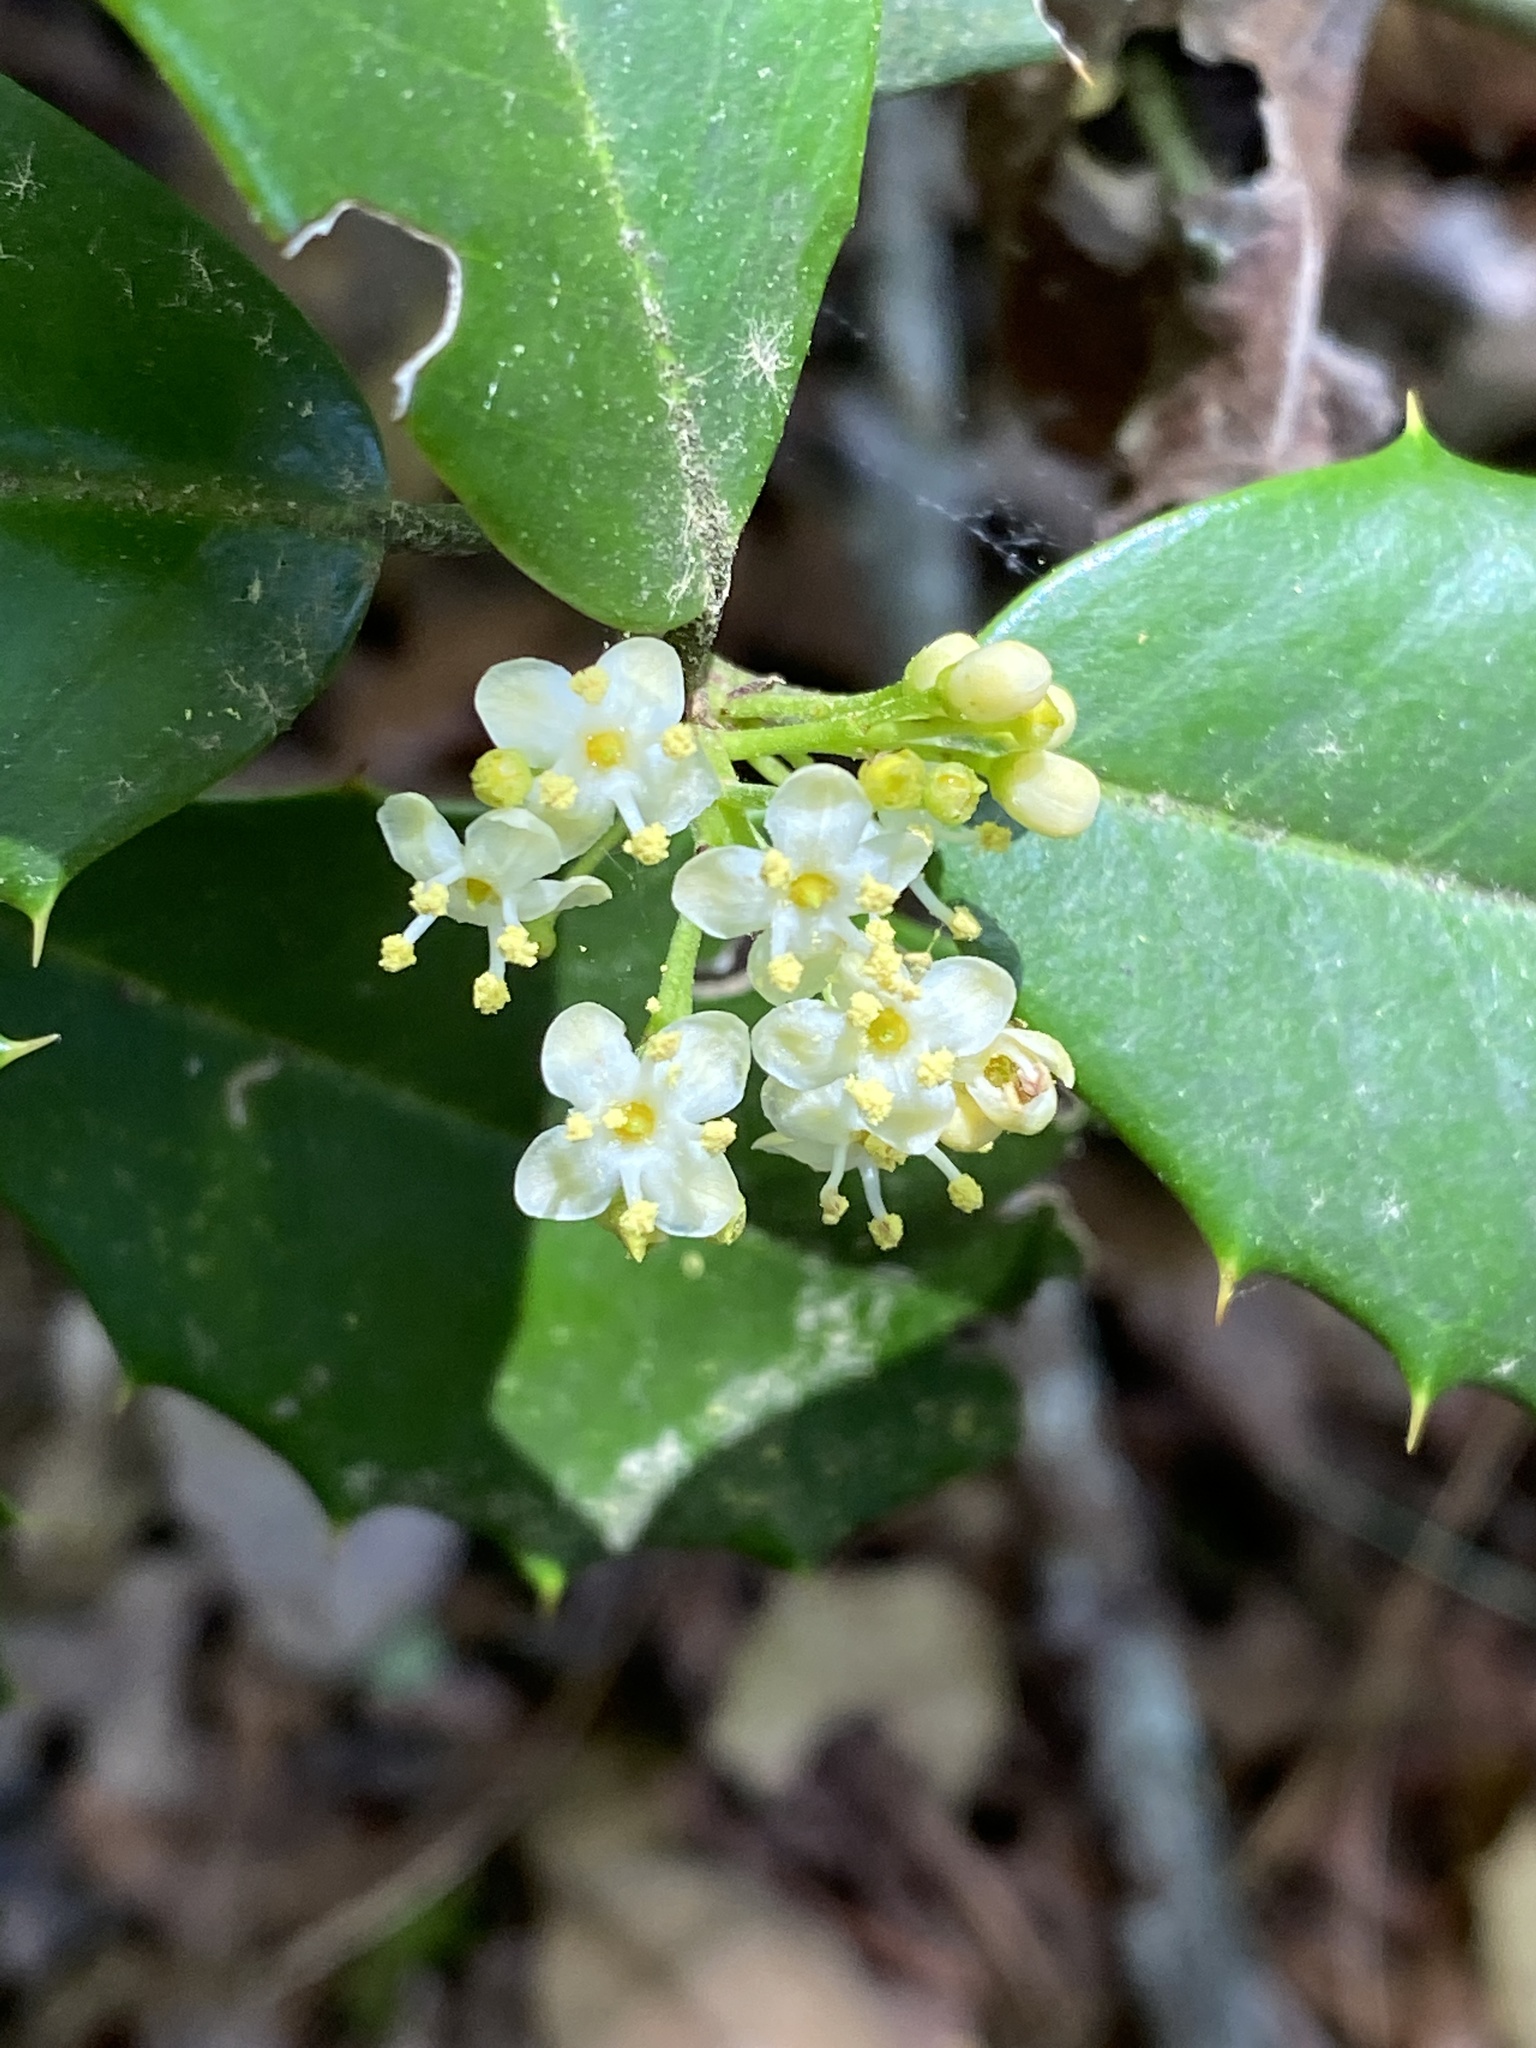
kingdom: Plantae
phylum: Tracheophyta
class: Magnoliopsida
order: Aquifoliales
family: Aquifoliaceae
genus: Ilex
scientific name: Ilex opaca
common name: American holly
